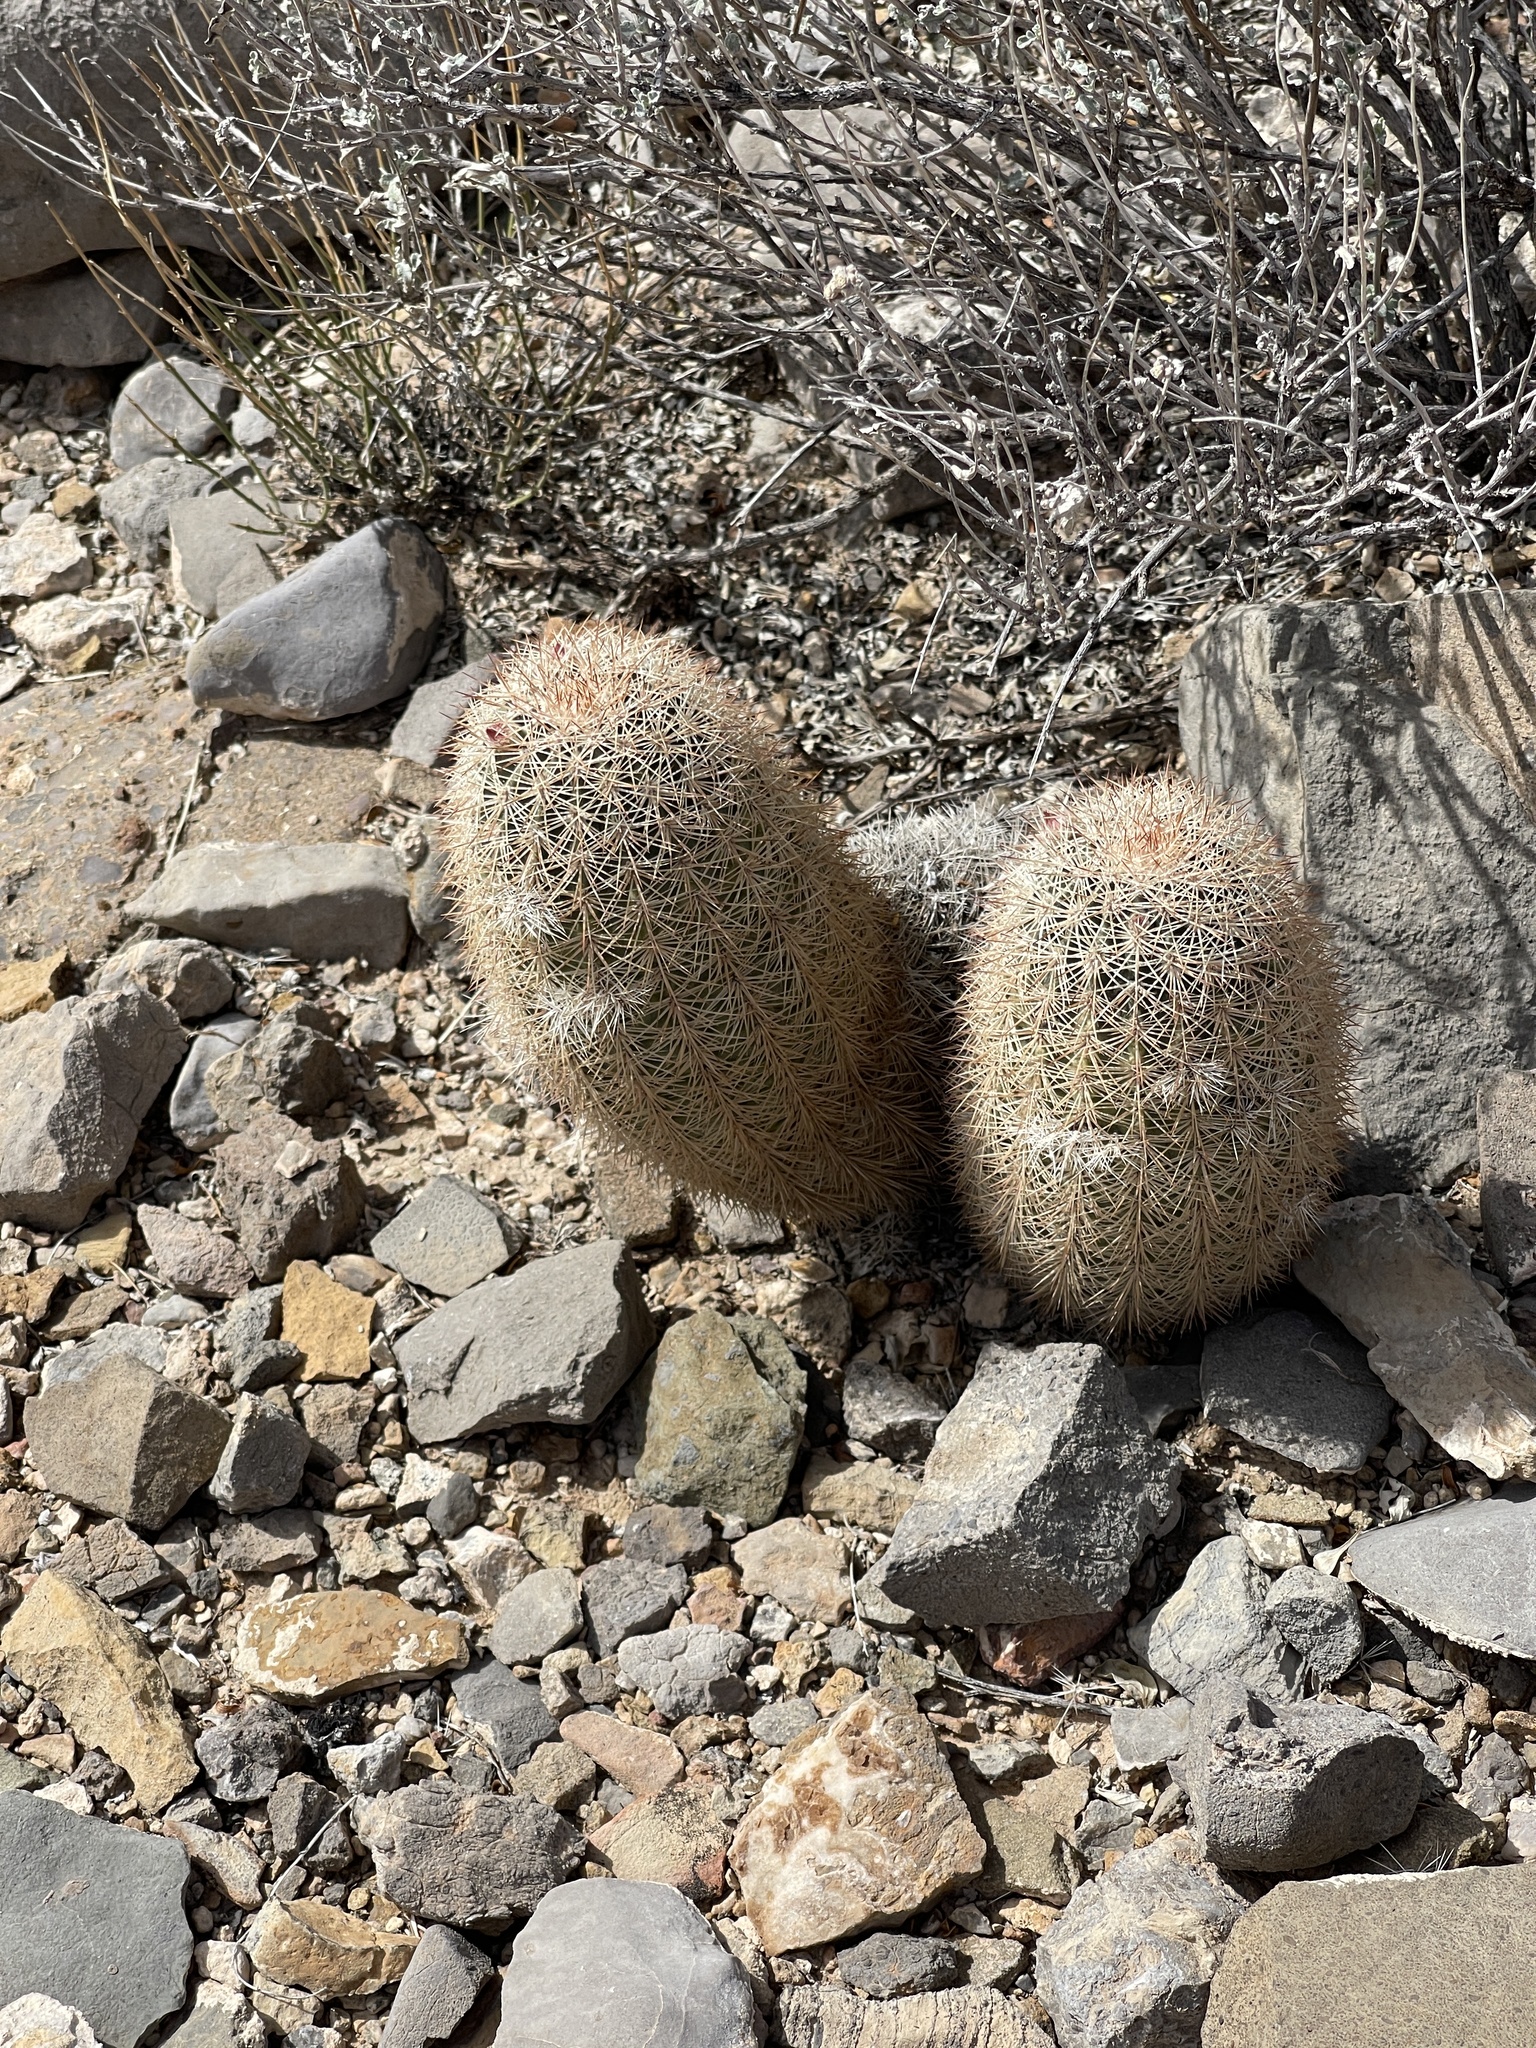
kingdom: Plantae
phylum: Tracheophyta
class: Magnoliopsida
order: Caryophyllales
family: Cactaceae
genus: Echinocereus
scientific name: Echinocereus dasyacanthus
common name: Spiny hedgehog cactus
